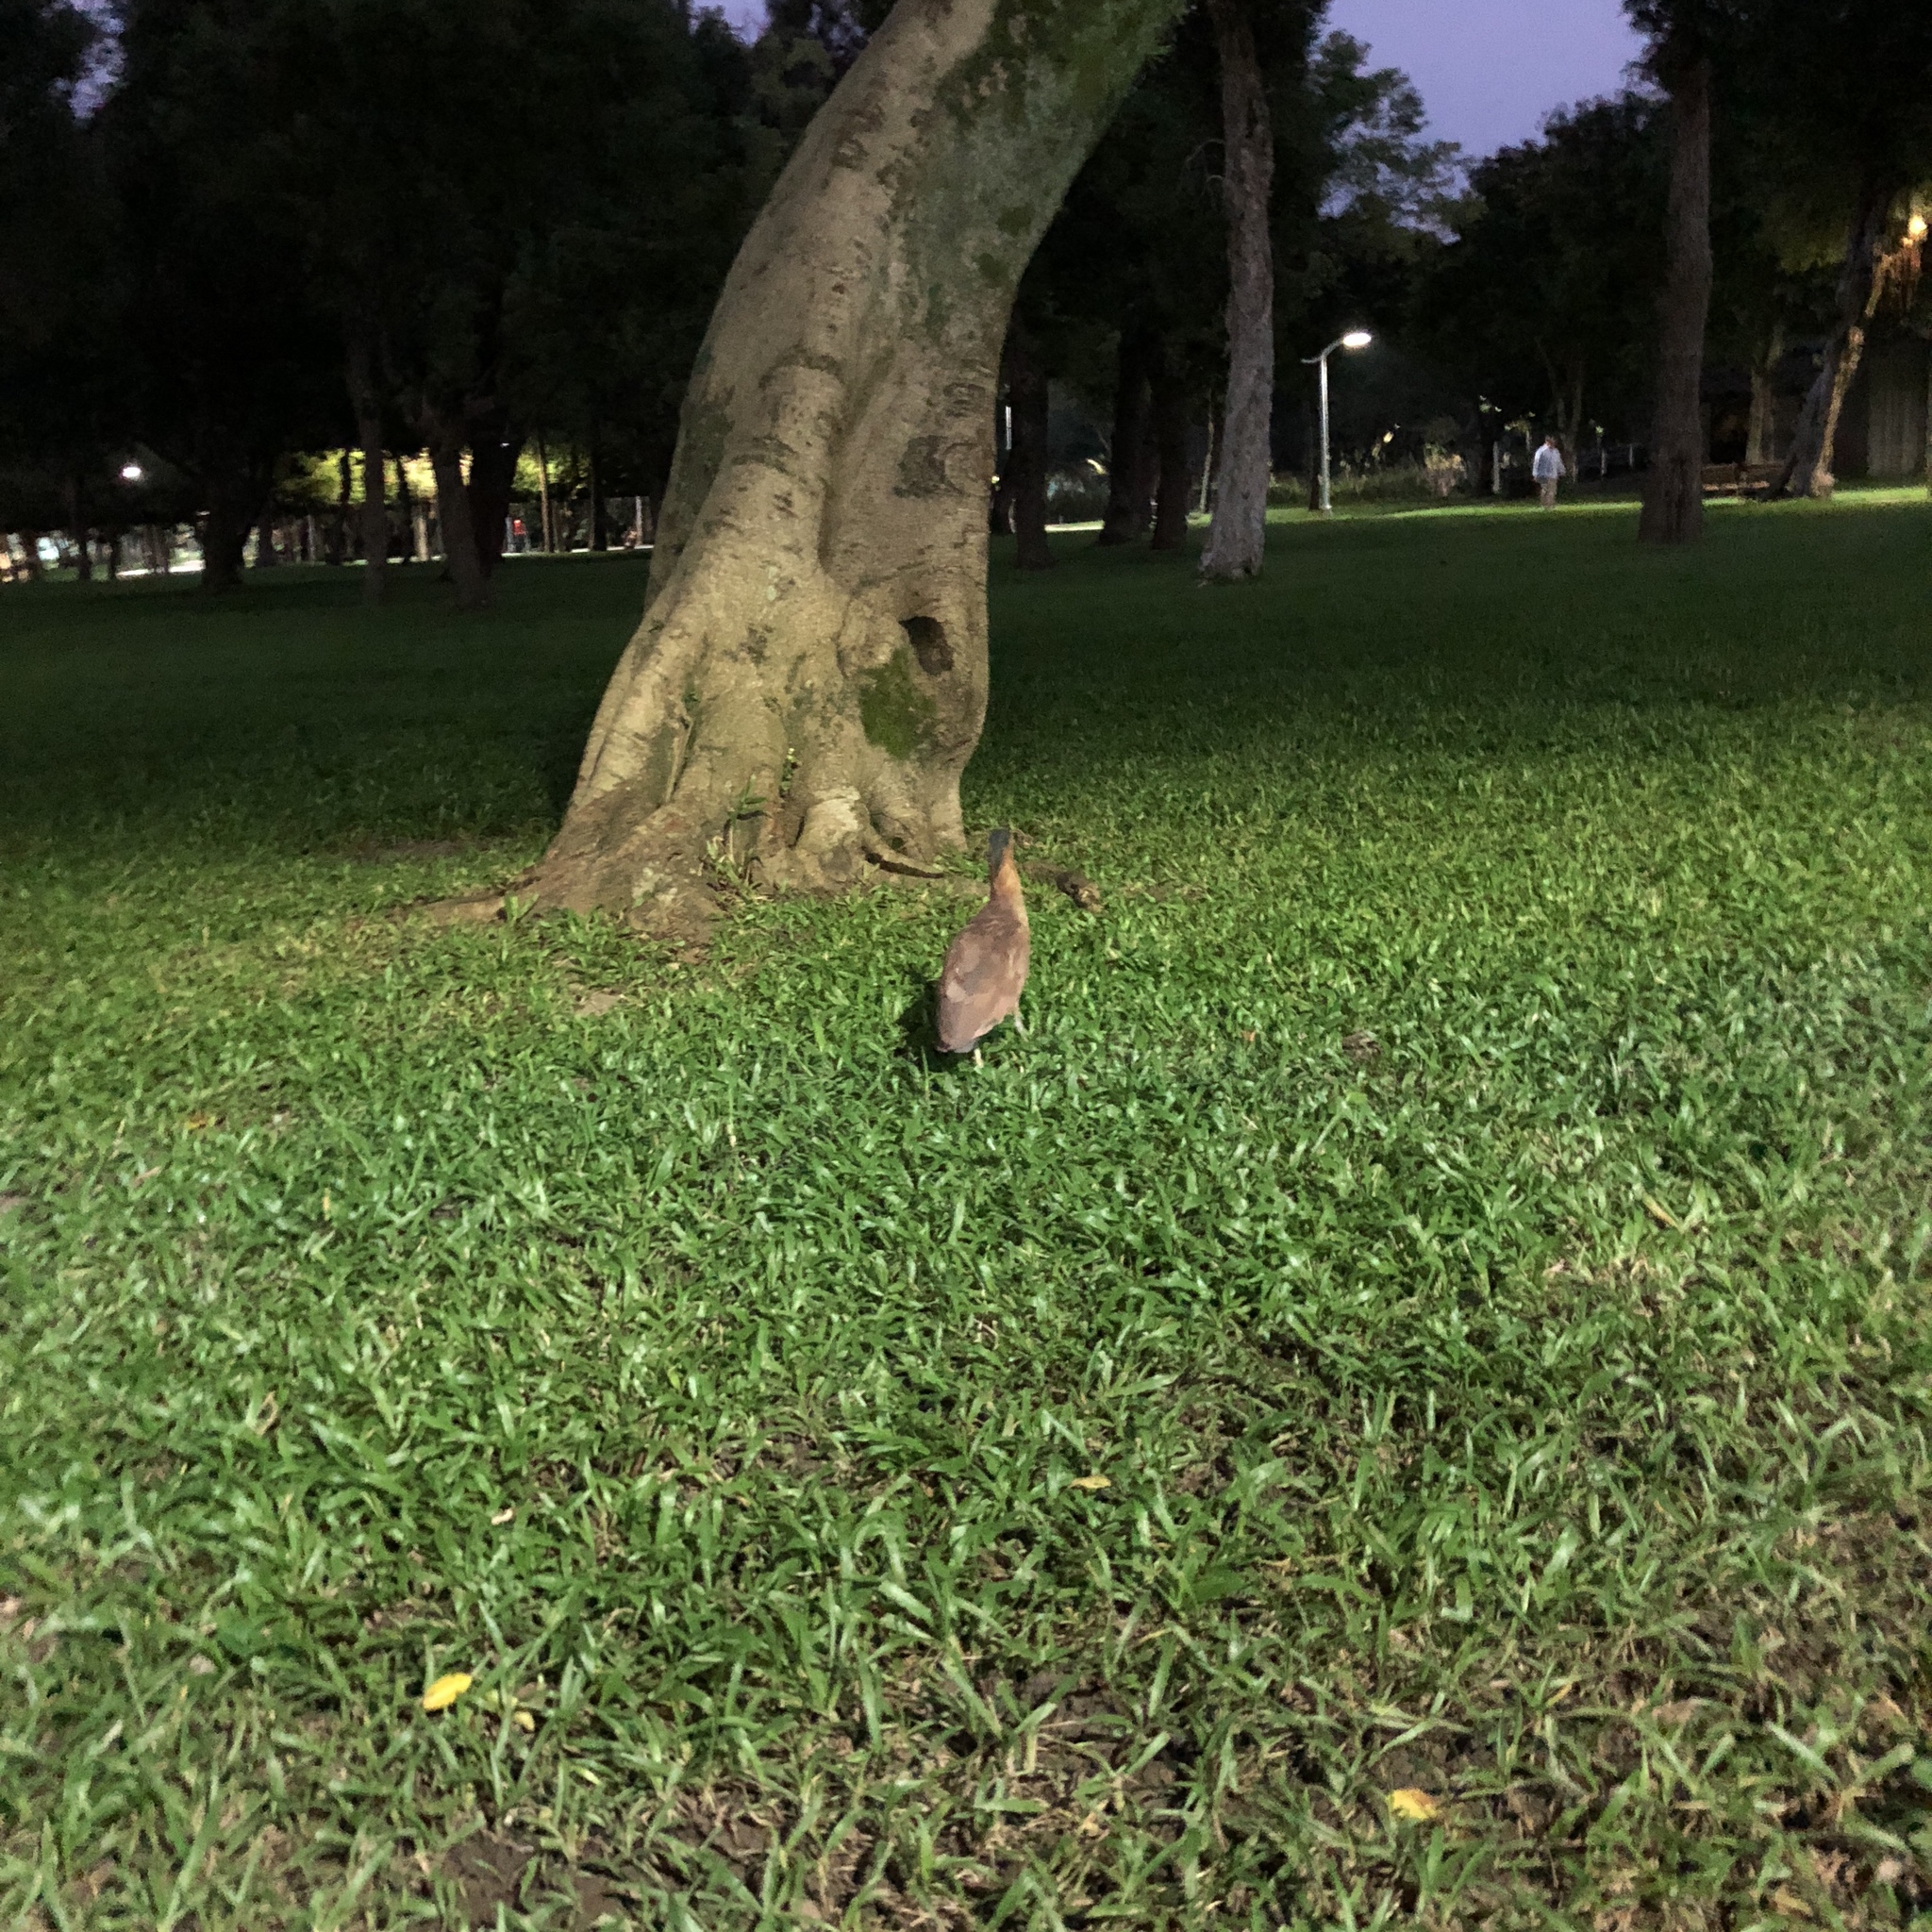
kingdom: Animalia
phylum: Chordata
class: Aves
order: Pelecaniformes
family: Ardeidae
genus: Gorsachius
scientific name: Gorsachius melanolophus
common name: Malayan night heron
